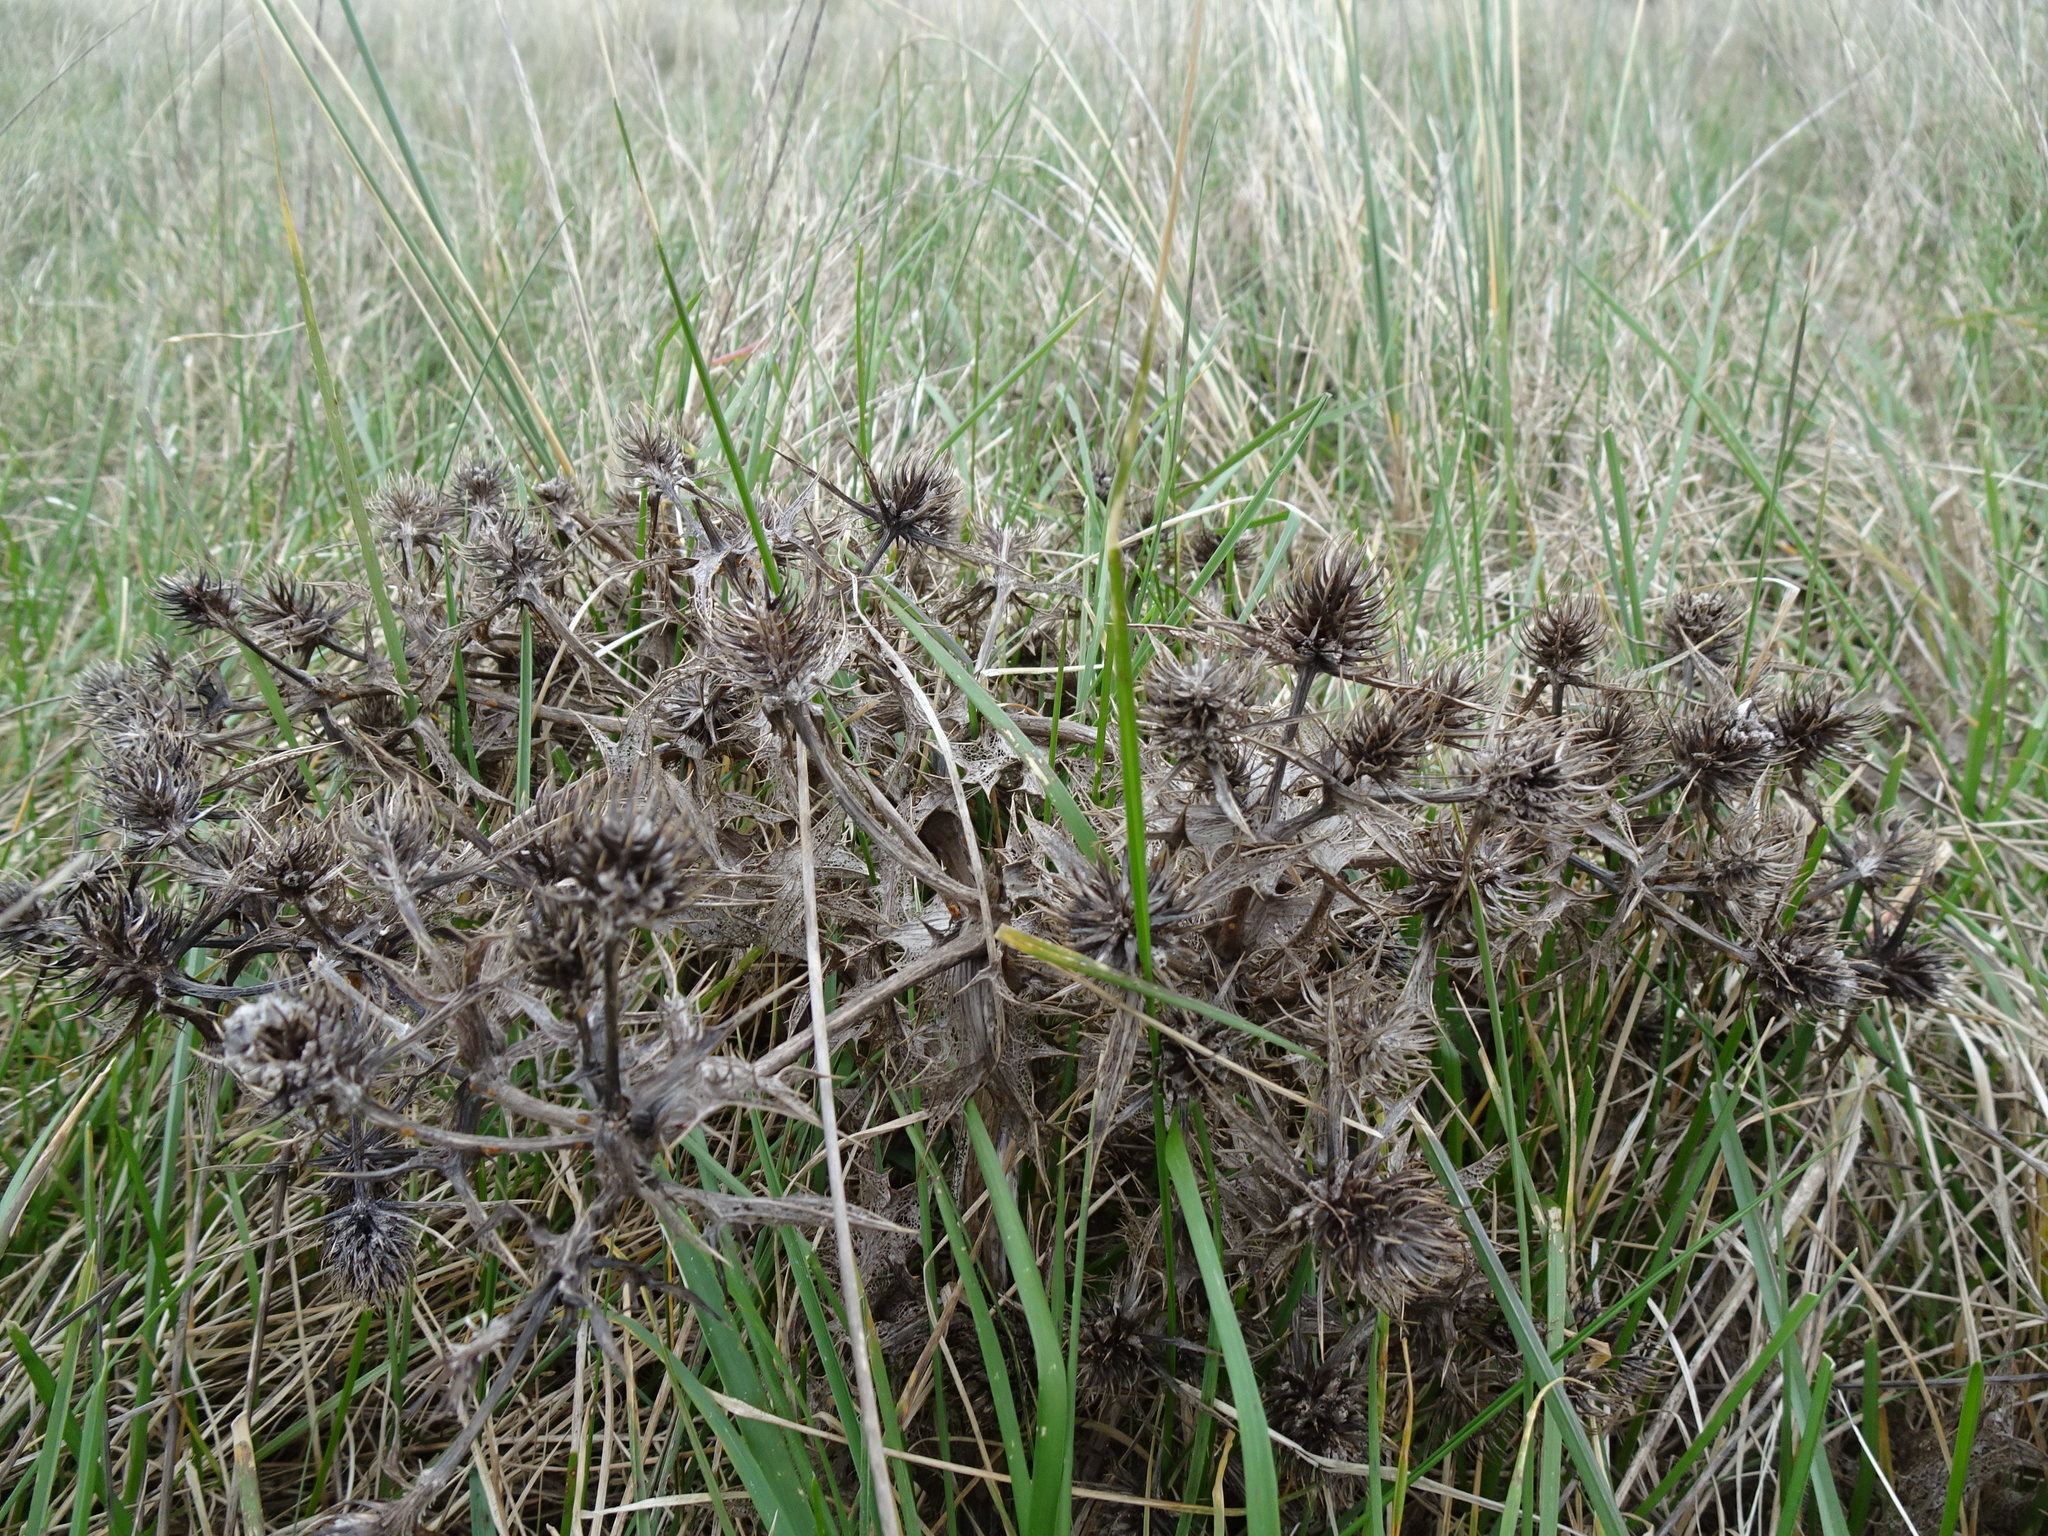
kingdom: Plantae
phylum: Tracheophyta
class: Magnoliopsida
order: Apiales
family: Apiaceae
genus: Eryngium
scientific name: Eryngium campestre
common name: Field eryngo
